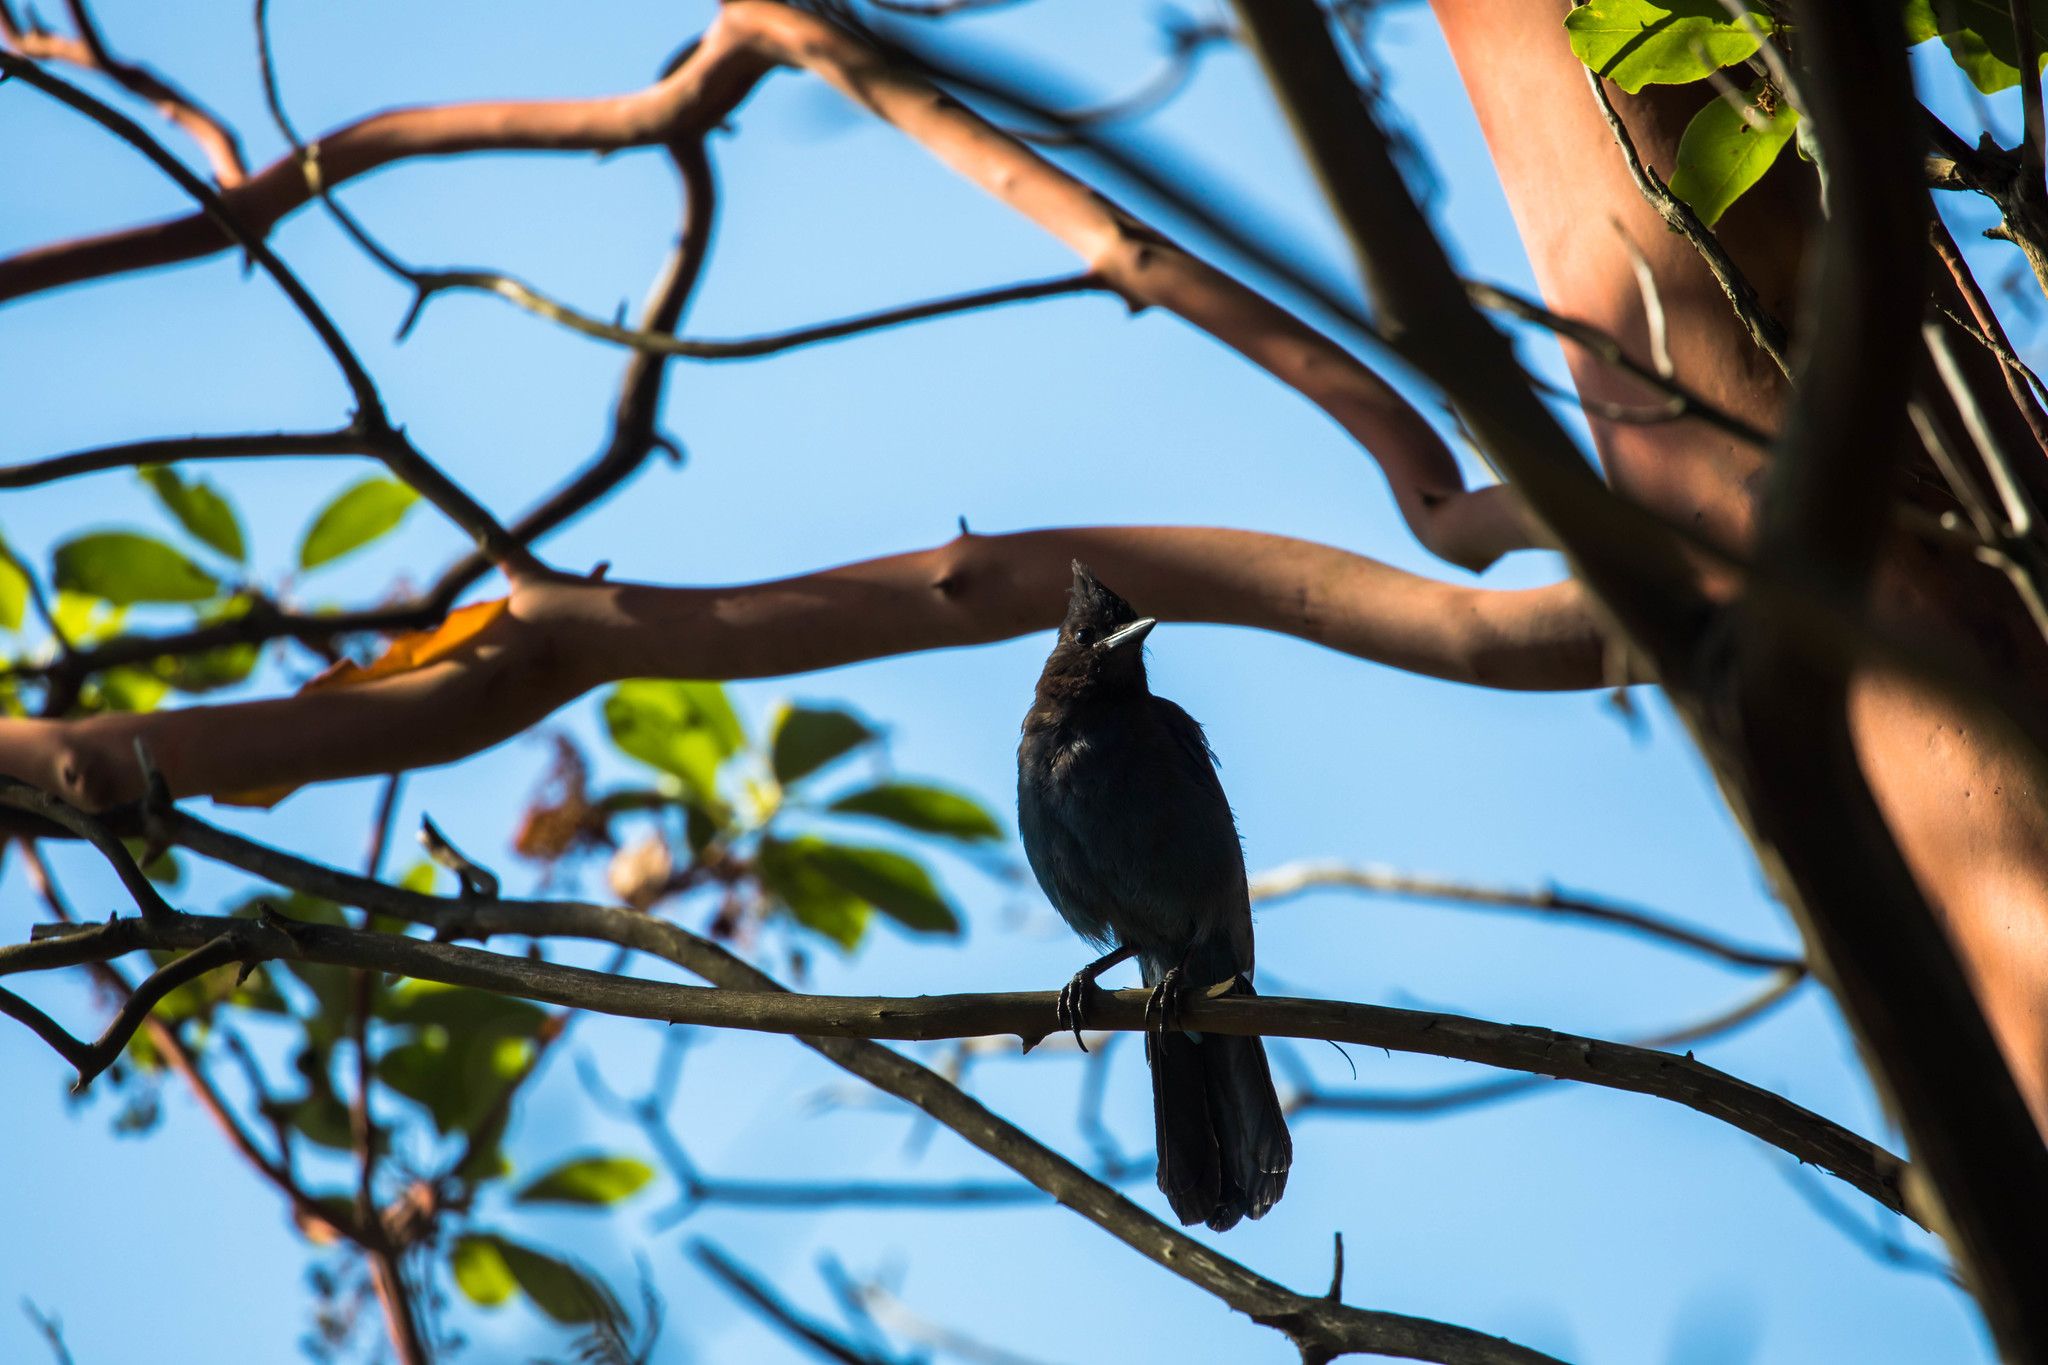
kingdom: Animalia
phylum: Chordata
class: Aves
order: Passeriformes
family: Corvidae
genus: Cyanocitta
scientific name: Cyanocitta stelleri
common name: Steller's jay
